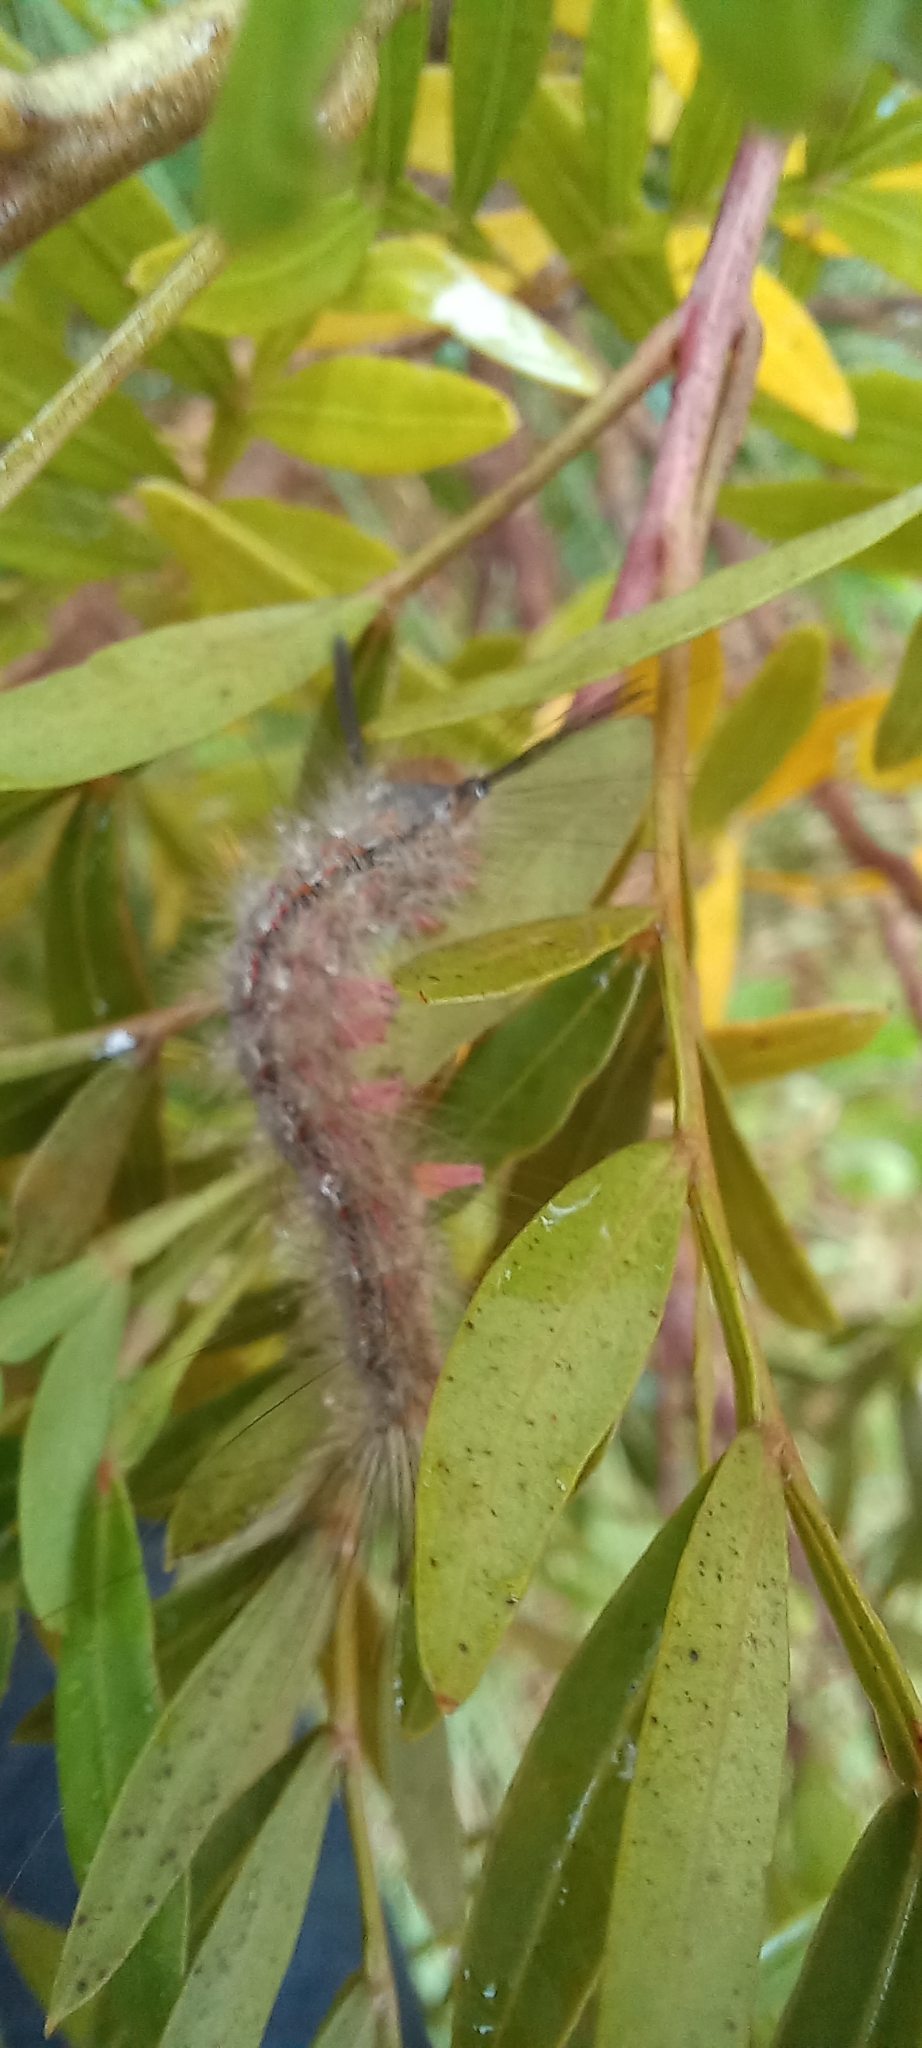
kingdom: Plantae
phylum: Tracheophyta
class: Magnoliopsida
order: Sapindales
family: Anacardiaceae
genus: Loxostylis
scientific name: Loxostylis alata
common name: Wild peppertree
